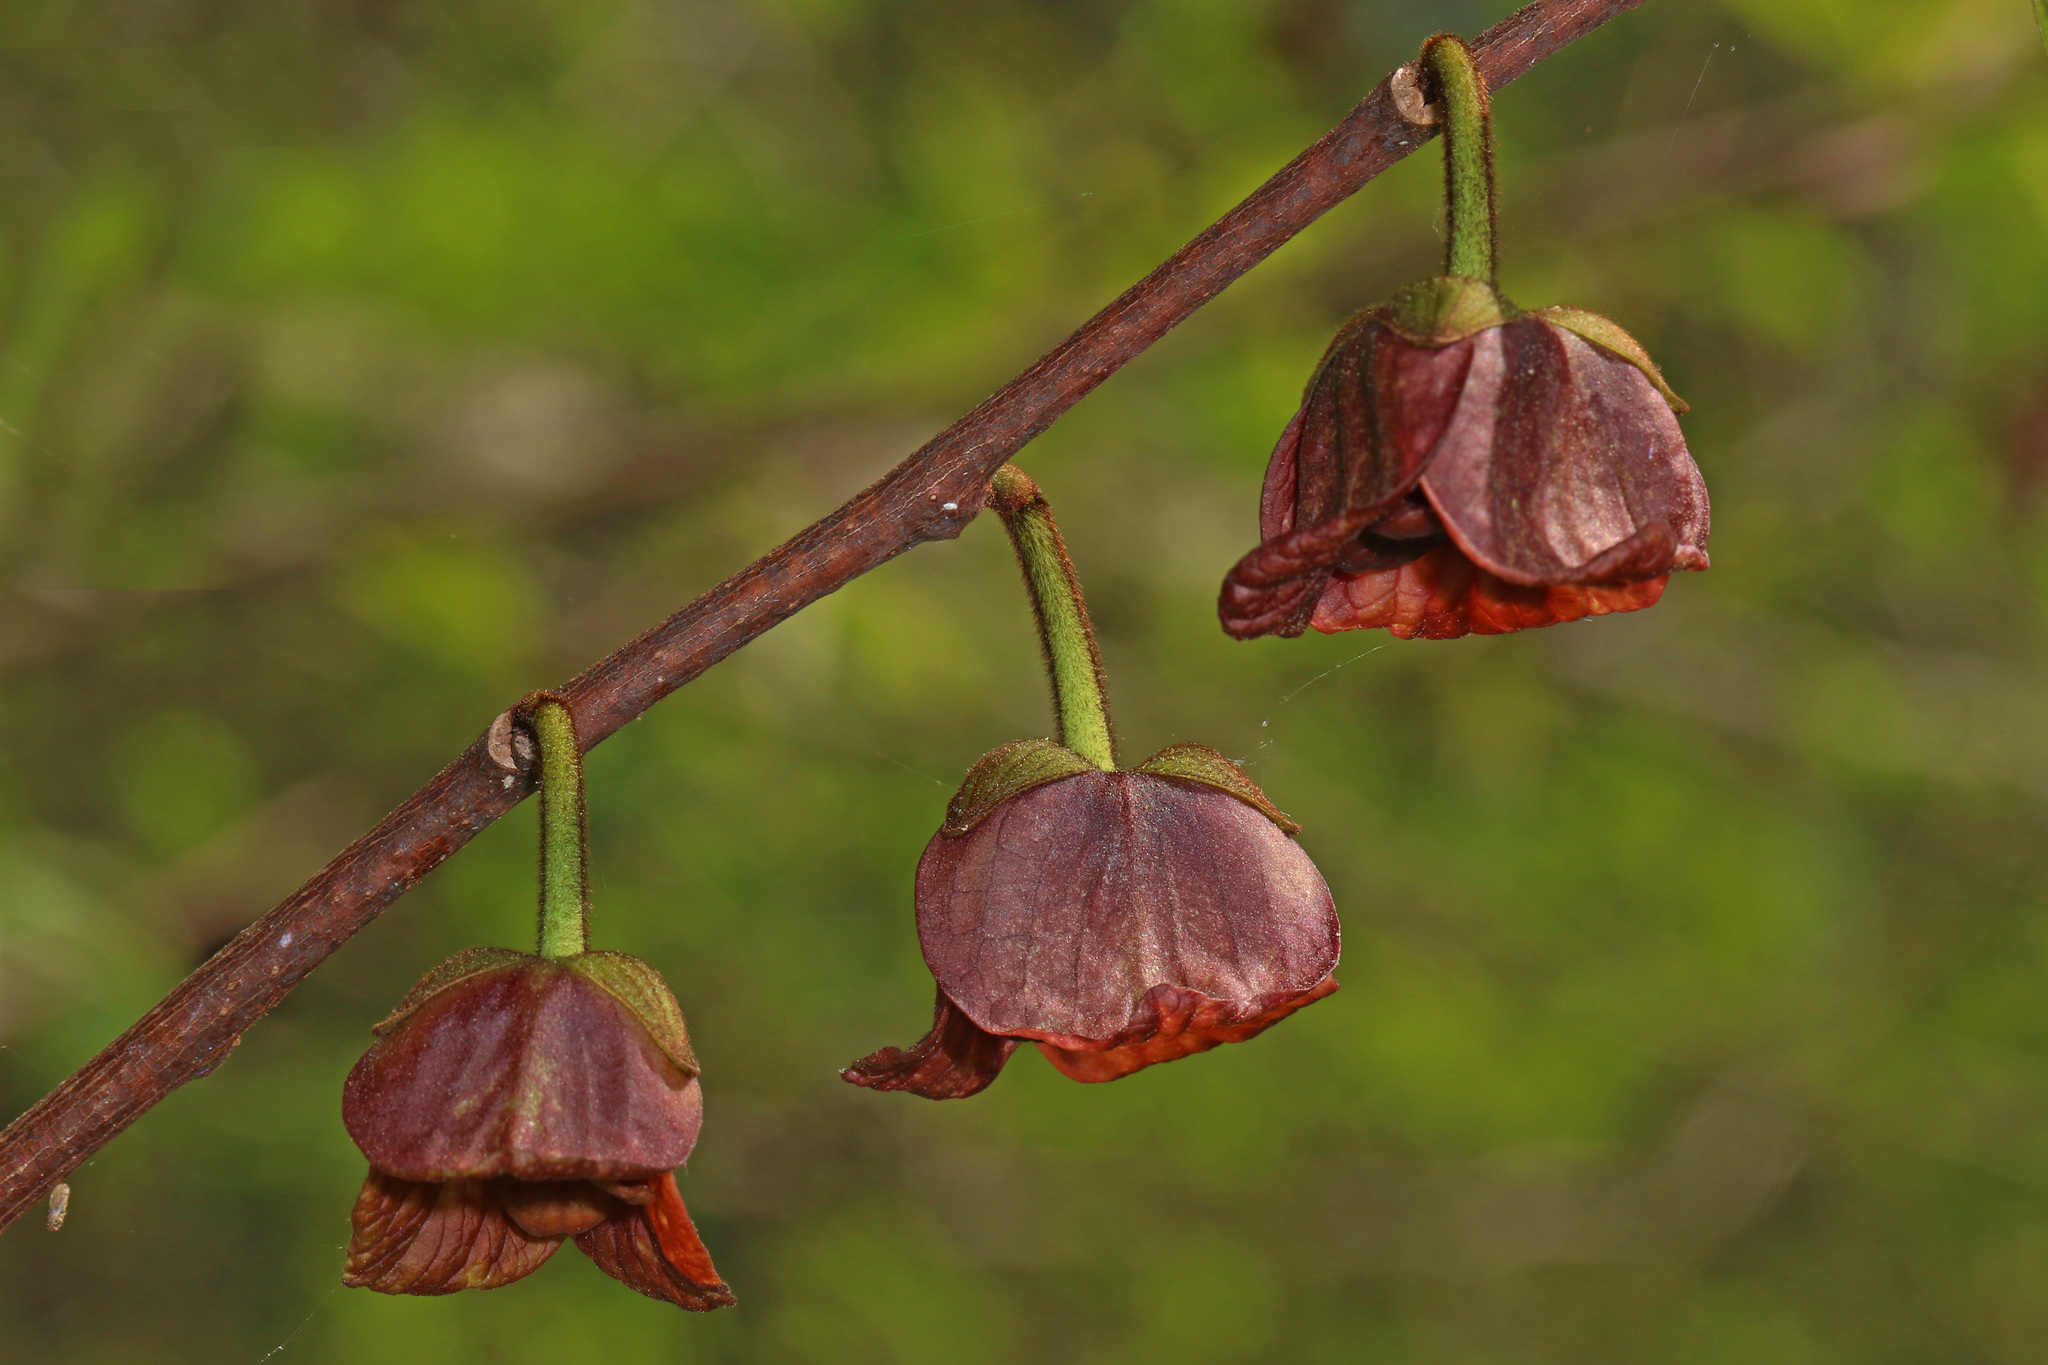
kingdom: Plantae
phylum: Tracheophyta
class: Magnoliopsida
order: Magnoliales
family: Annonaceae
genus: Asimina
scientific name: Asimina triloba
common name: Dog-banana
